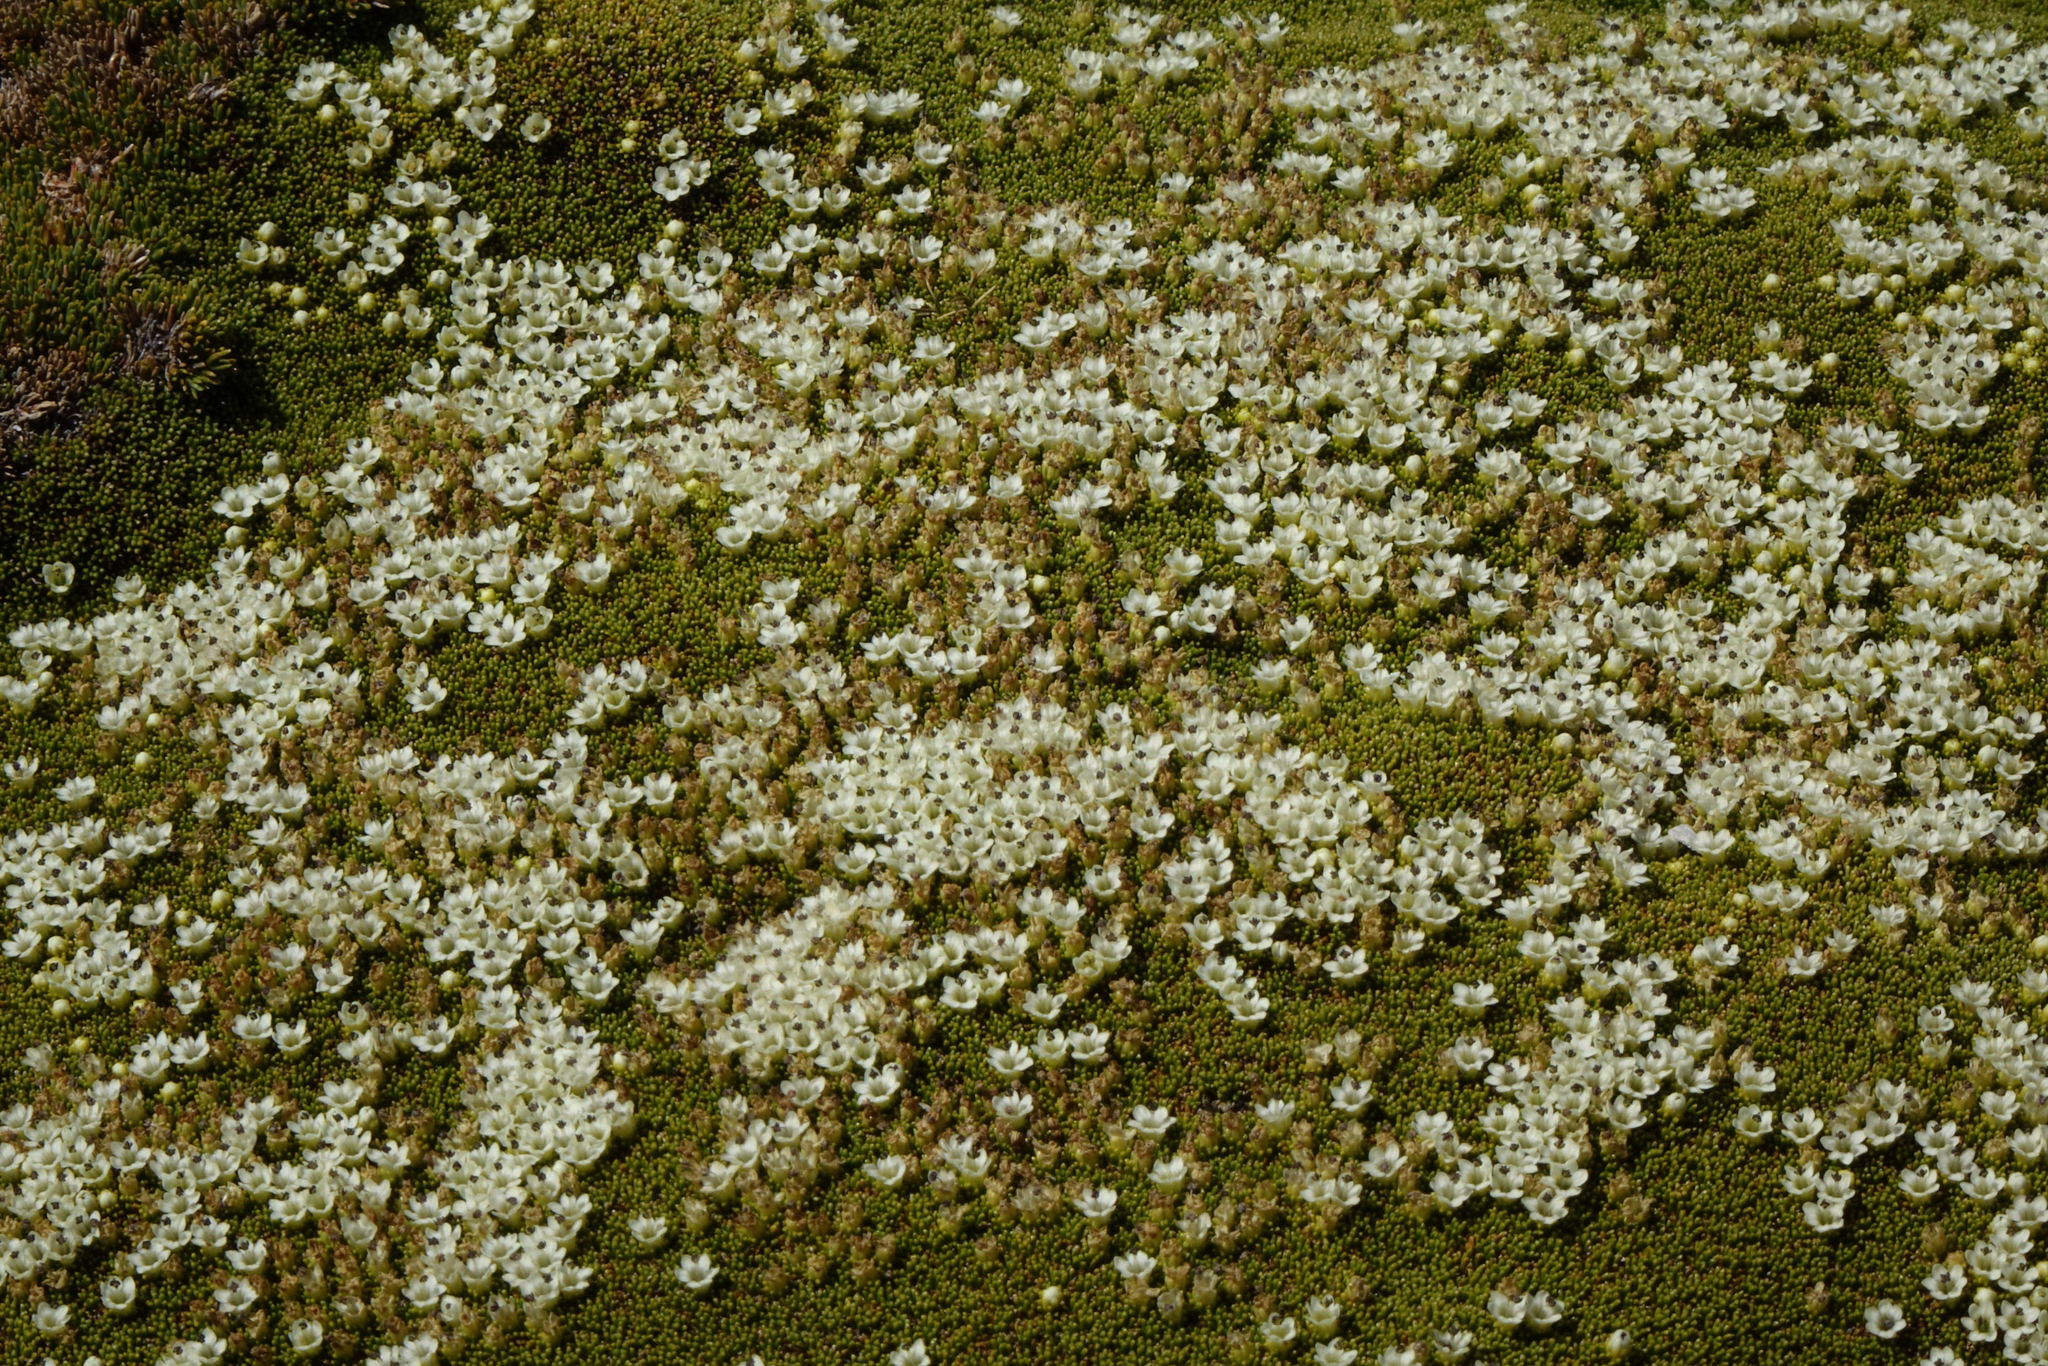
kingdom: Plantae
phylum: Tracheophyta
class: Magnoliopsida
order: Asterales
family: Stylidiaceae
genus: Phyllachne
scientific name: Phyllachne colensoi
